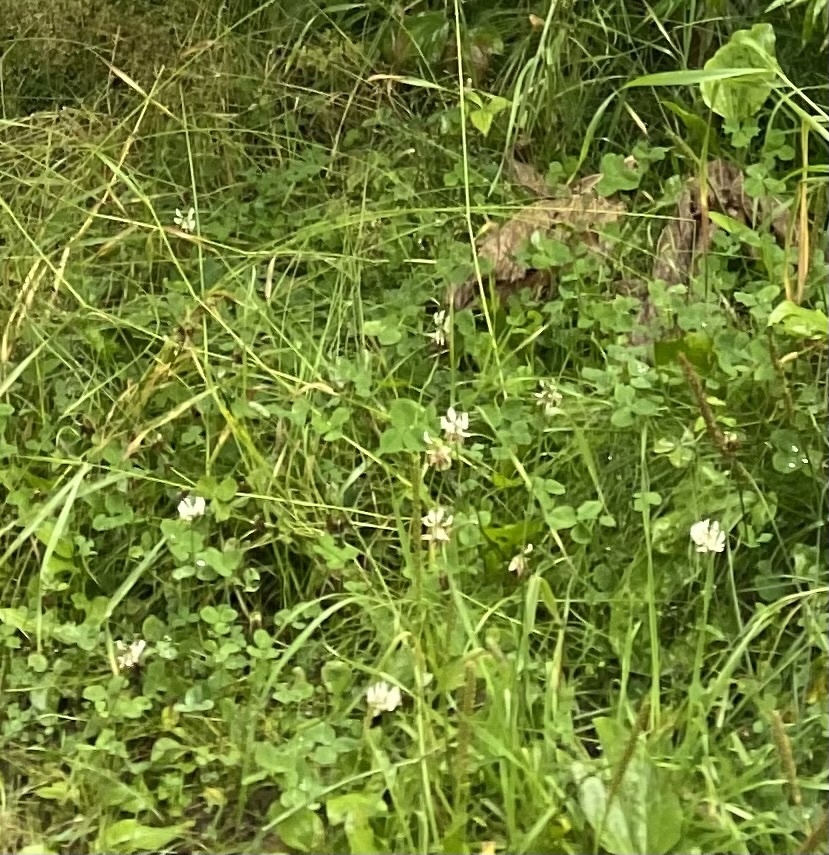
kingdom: Plantae
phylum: Tracheophyta
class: Magnoliopsida
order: Fabales
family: Fabaceae
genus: Trifolium
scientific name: Trifolium repens
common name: White clover
